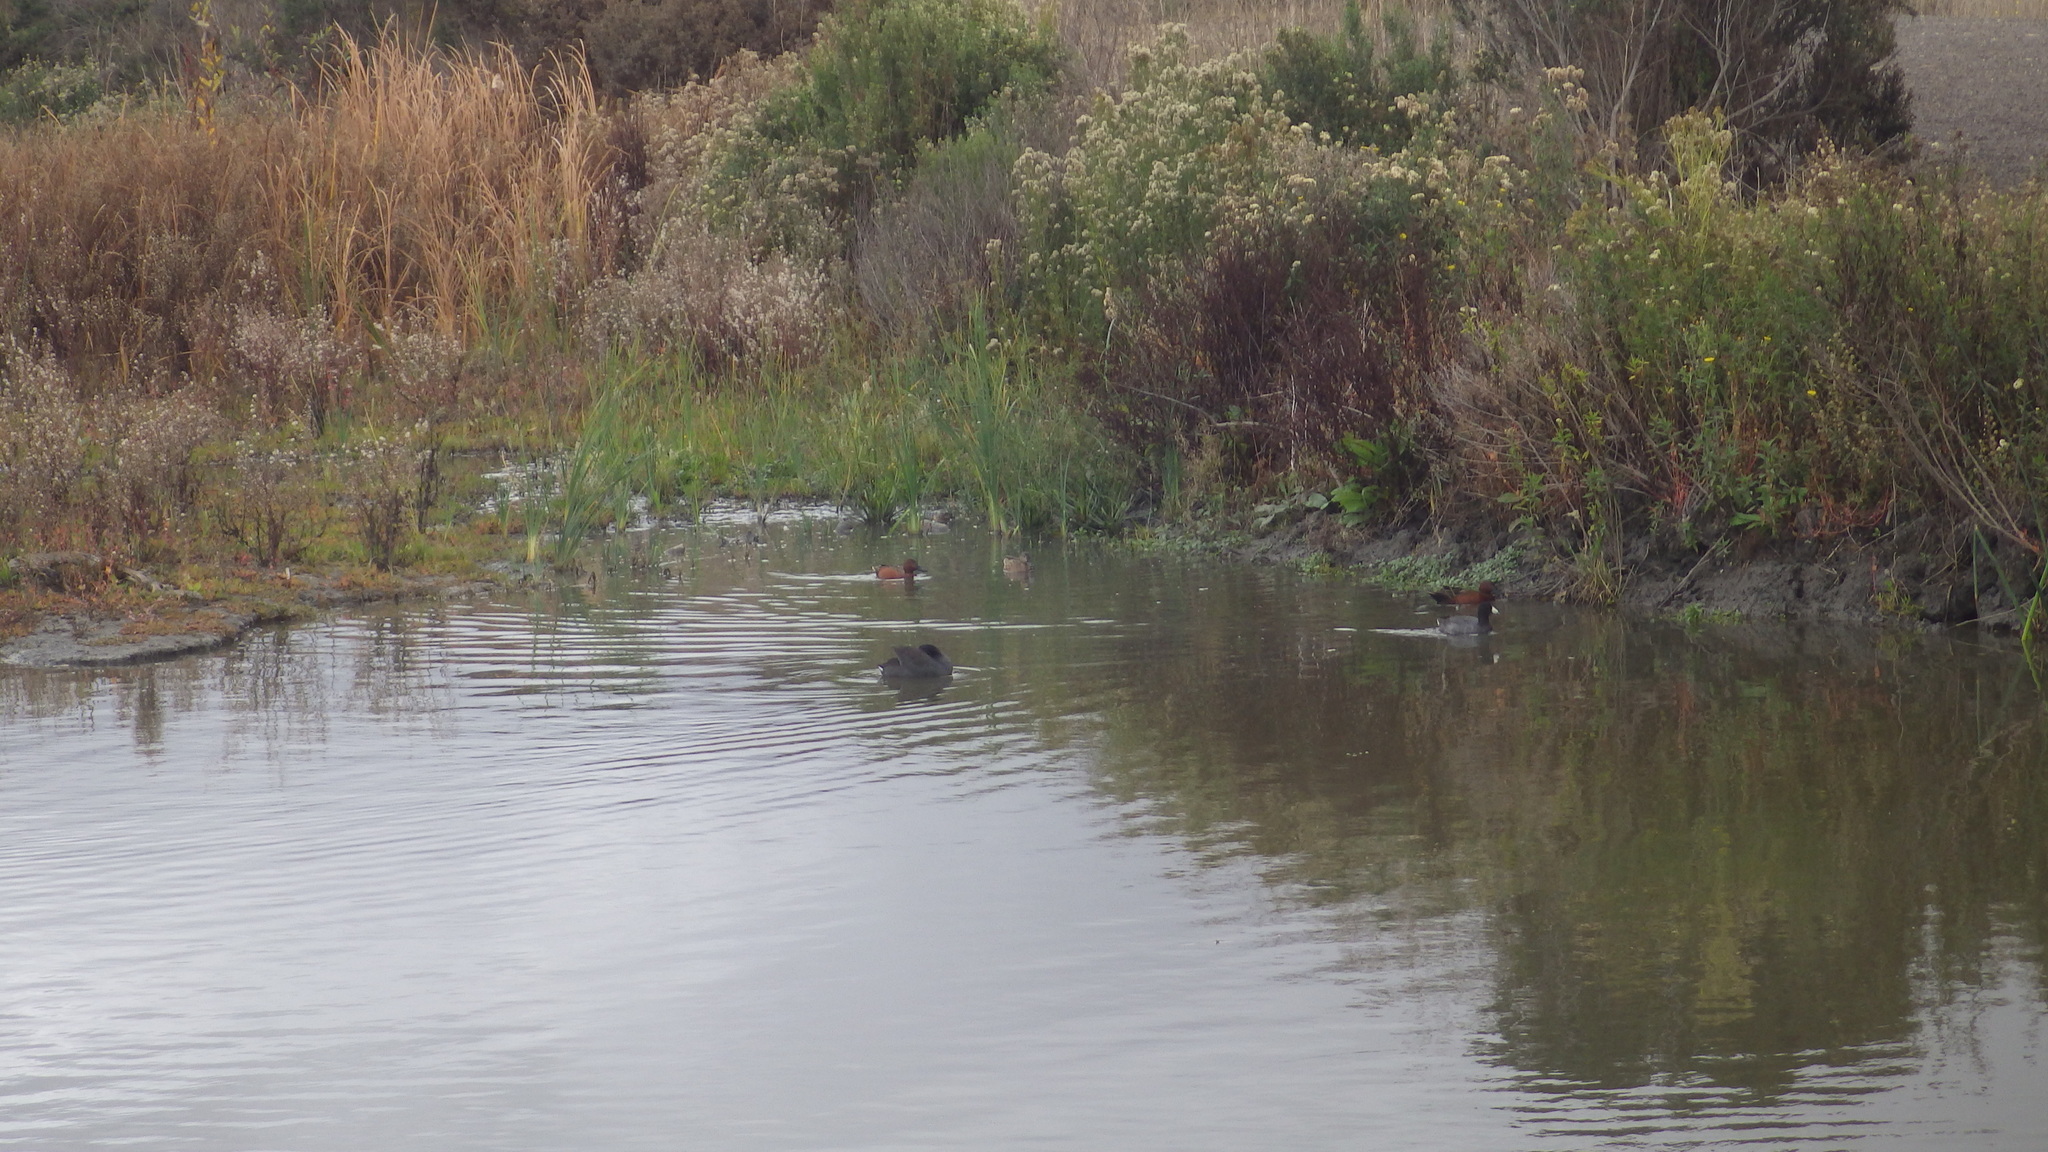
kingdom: Animalia
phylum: Chordata
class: Aves
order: Gruiformes
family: Rallidae
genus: Fulica
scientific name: Fulica americana
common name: American coot
